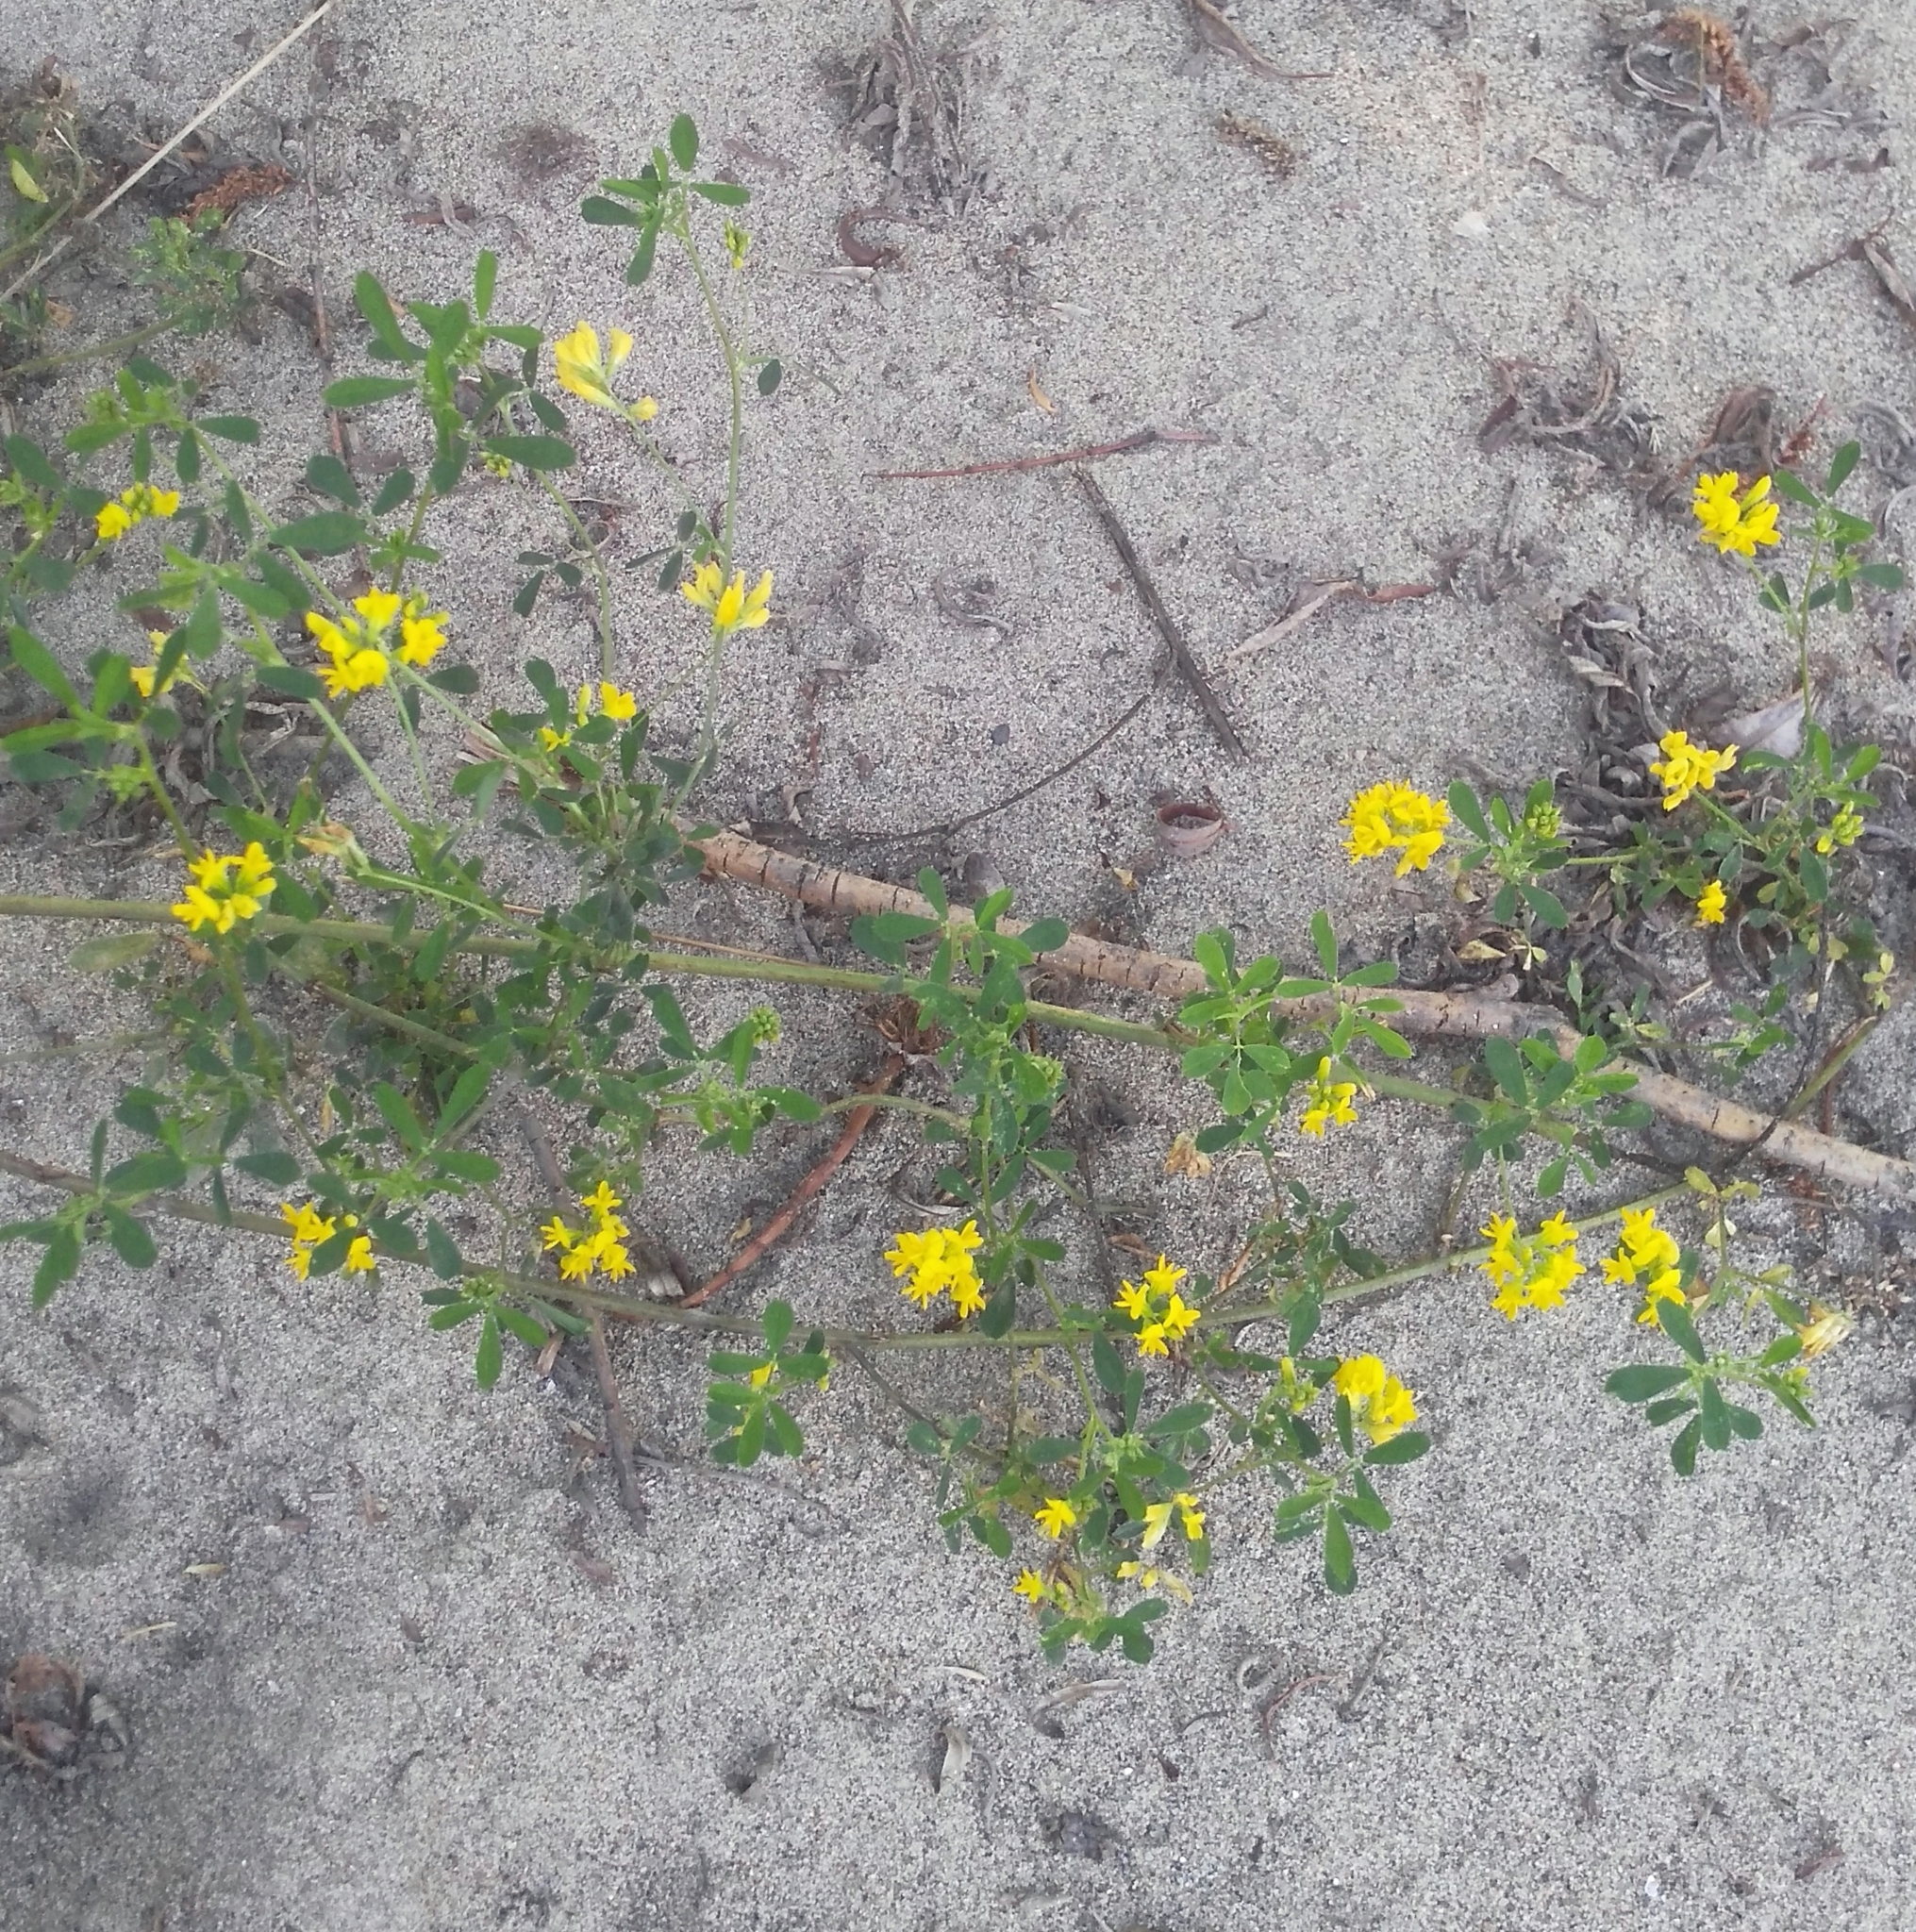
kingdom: Plantae
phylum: Tracheophyta
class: Magnoliopsida
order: Fabales
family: Fabaceae
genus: Medicago
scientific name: Medicago falcata
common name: Sickle medick
